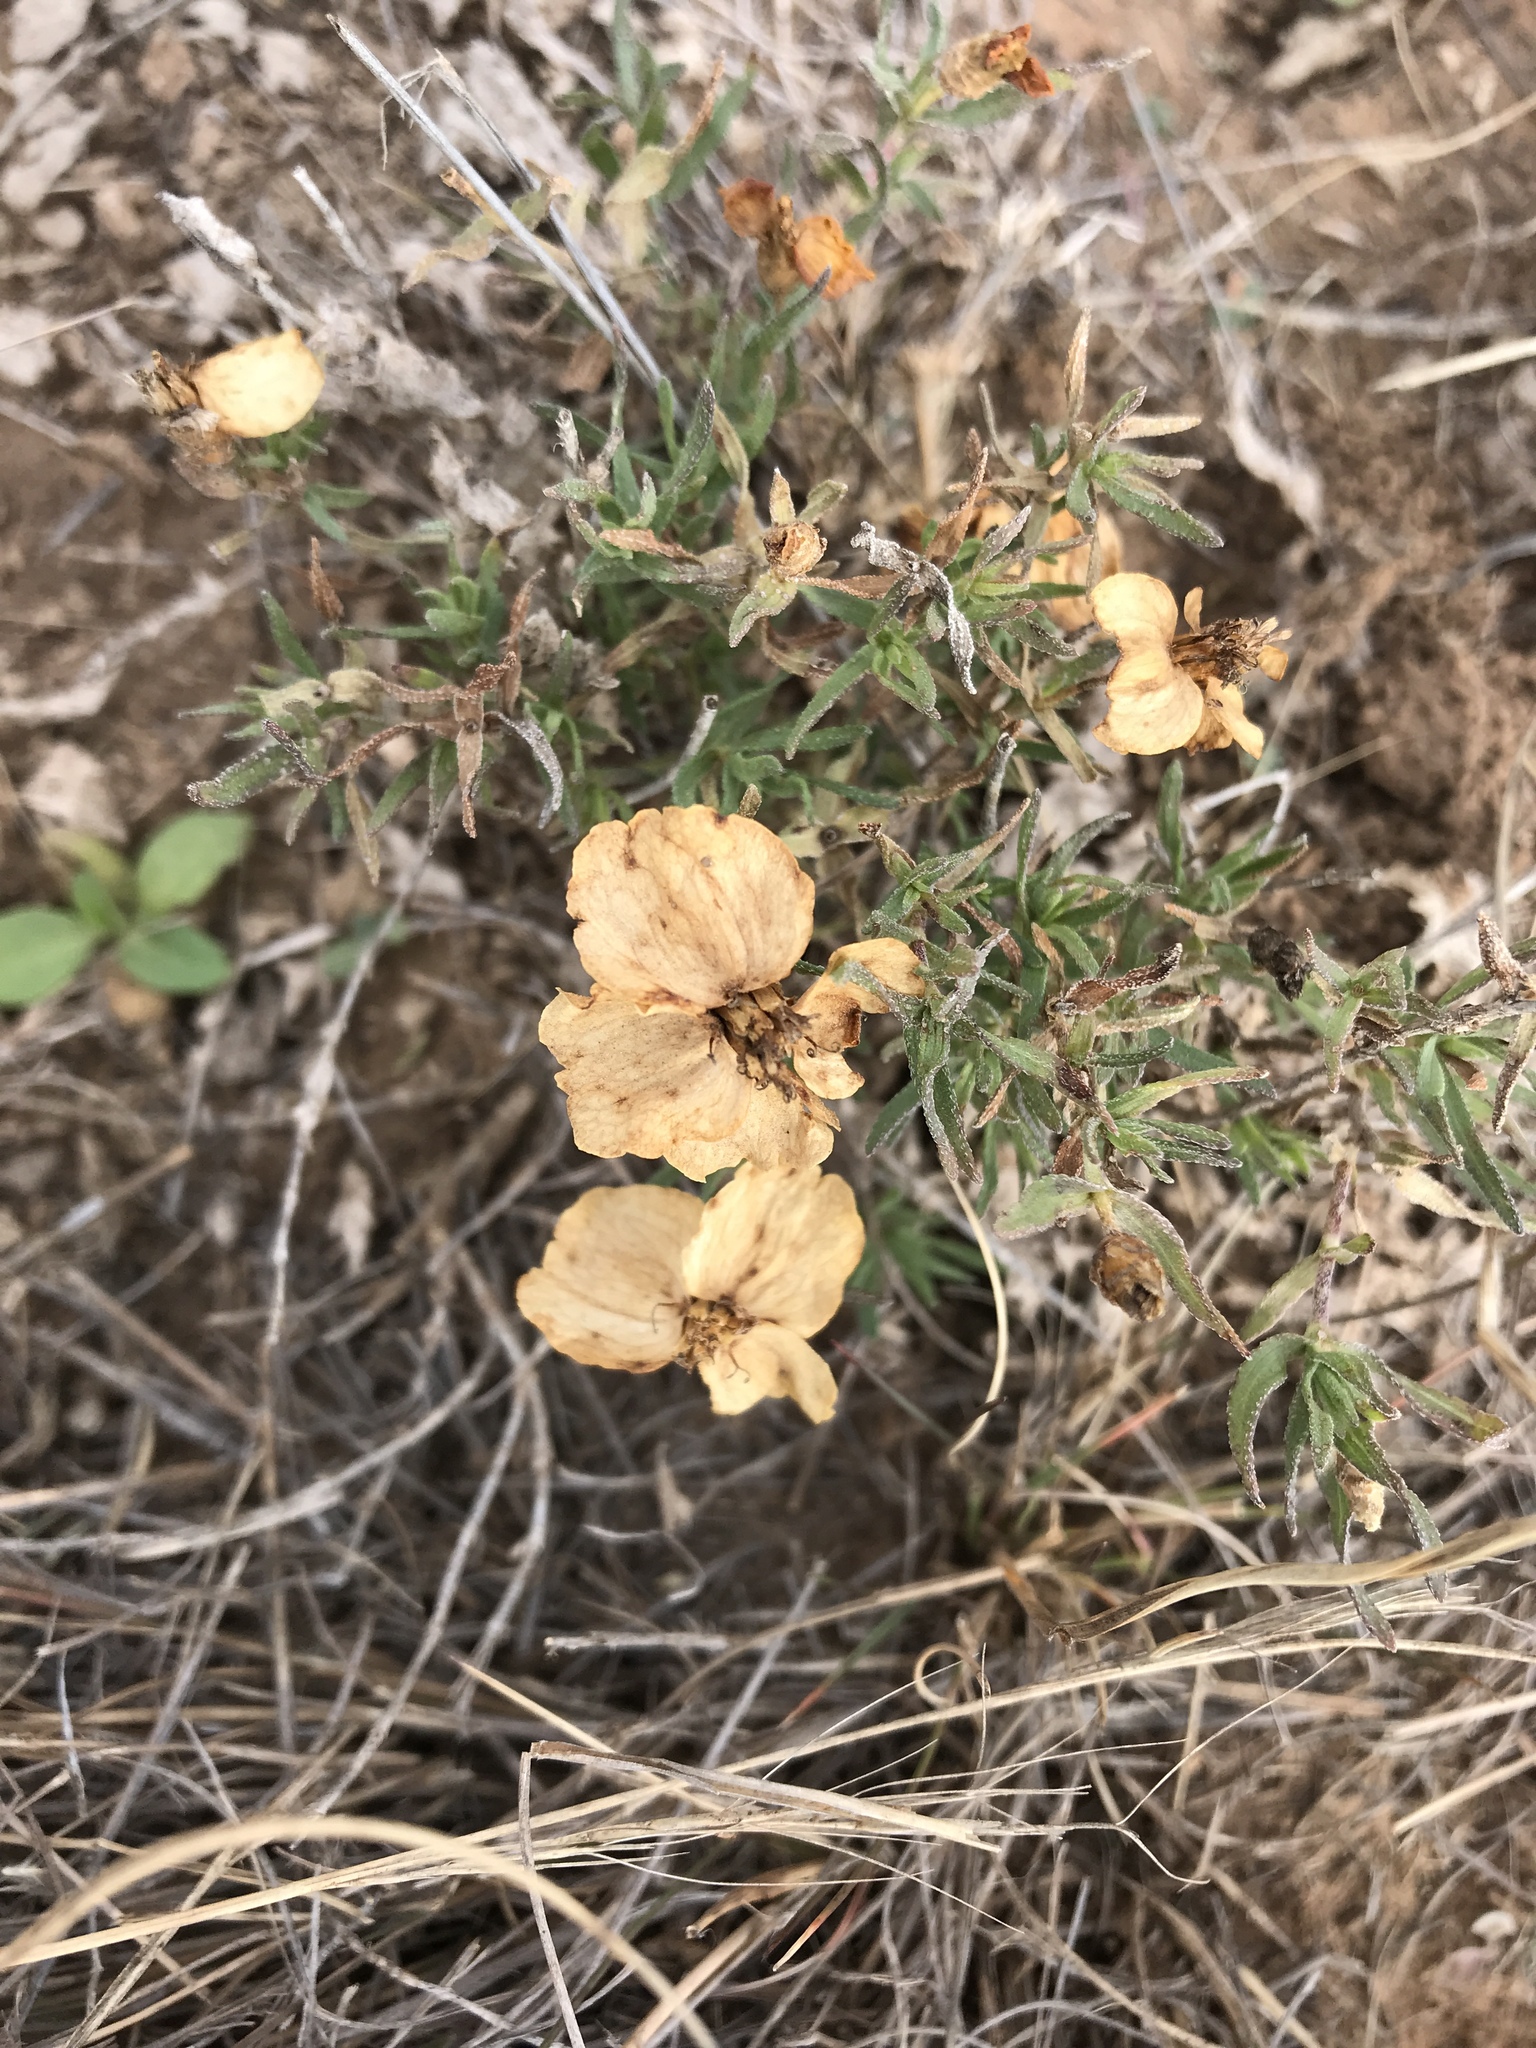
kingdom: Plantae
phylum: Tracheophyta
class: Magnoliopsida
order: Asterales
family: Asteraceae
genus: Zinnia
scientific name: Zinnia grandiflora
